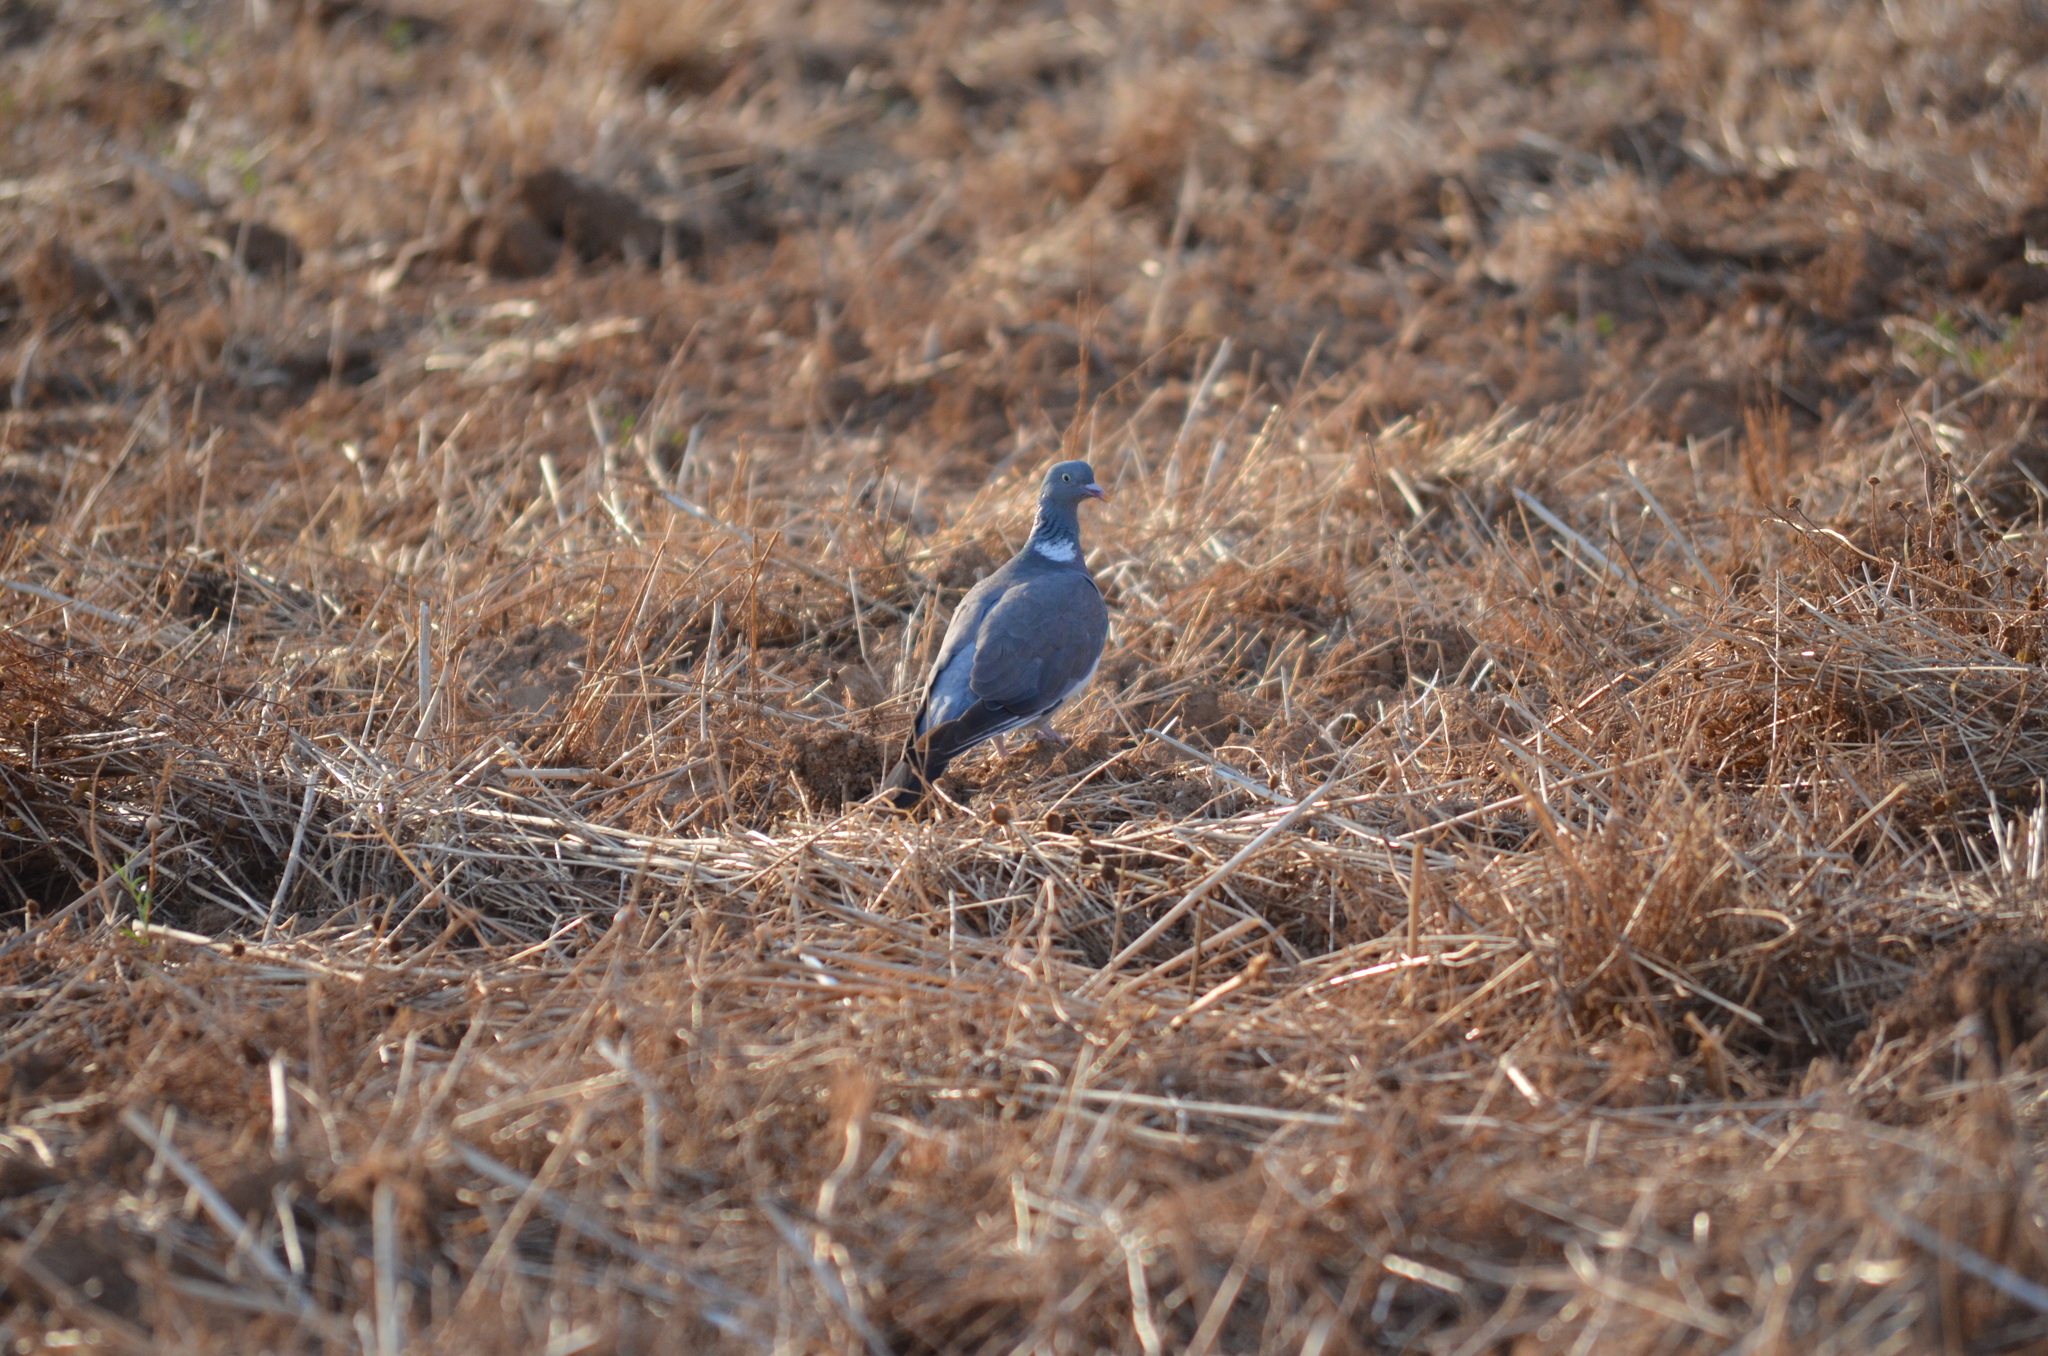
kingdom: Animalia
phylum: Chordata
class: Aves
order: Columbiformes
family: Columbidae
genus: Columba
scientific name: Columba palumbus
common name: Common wood pigeon
